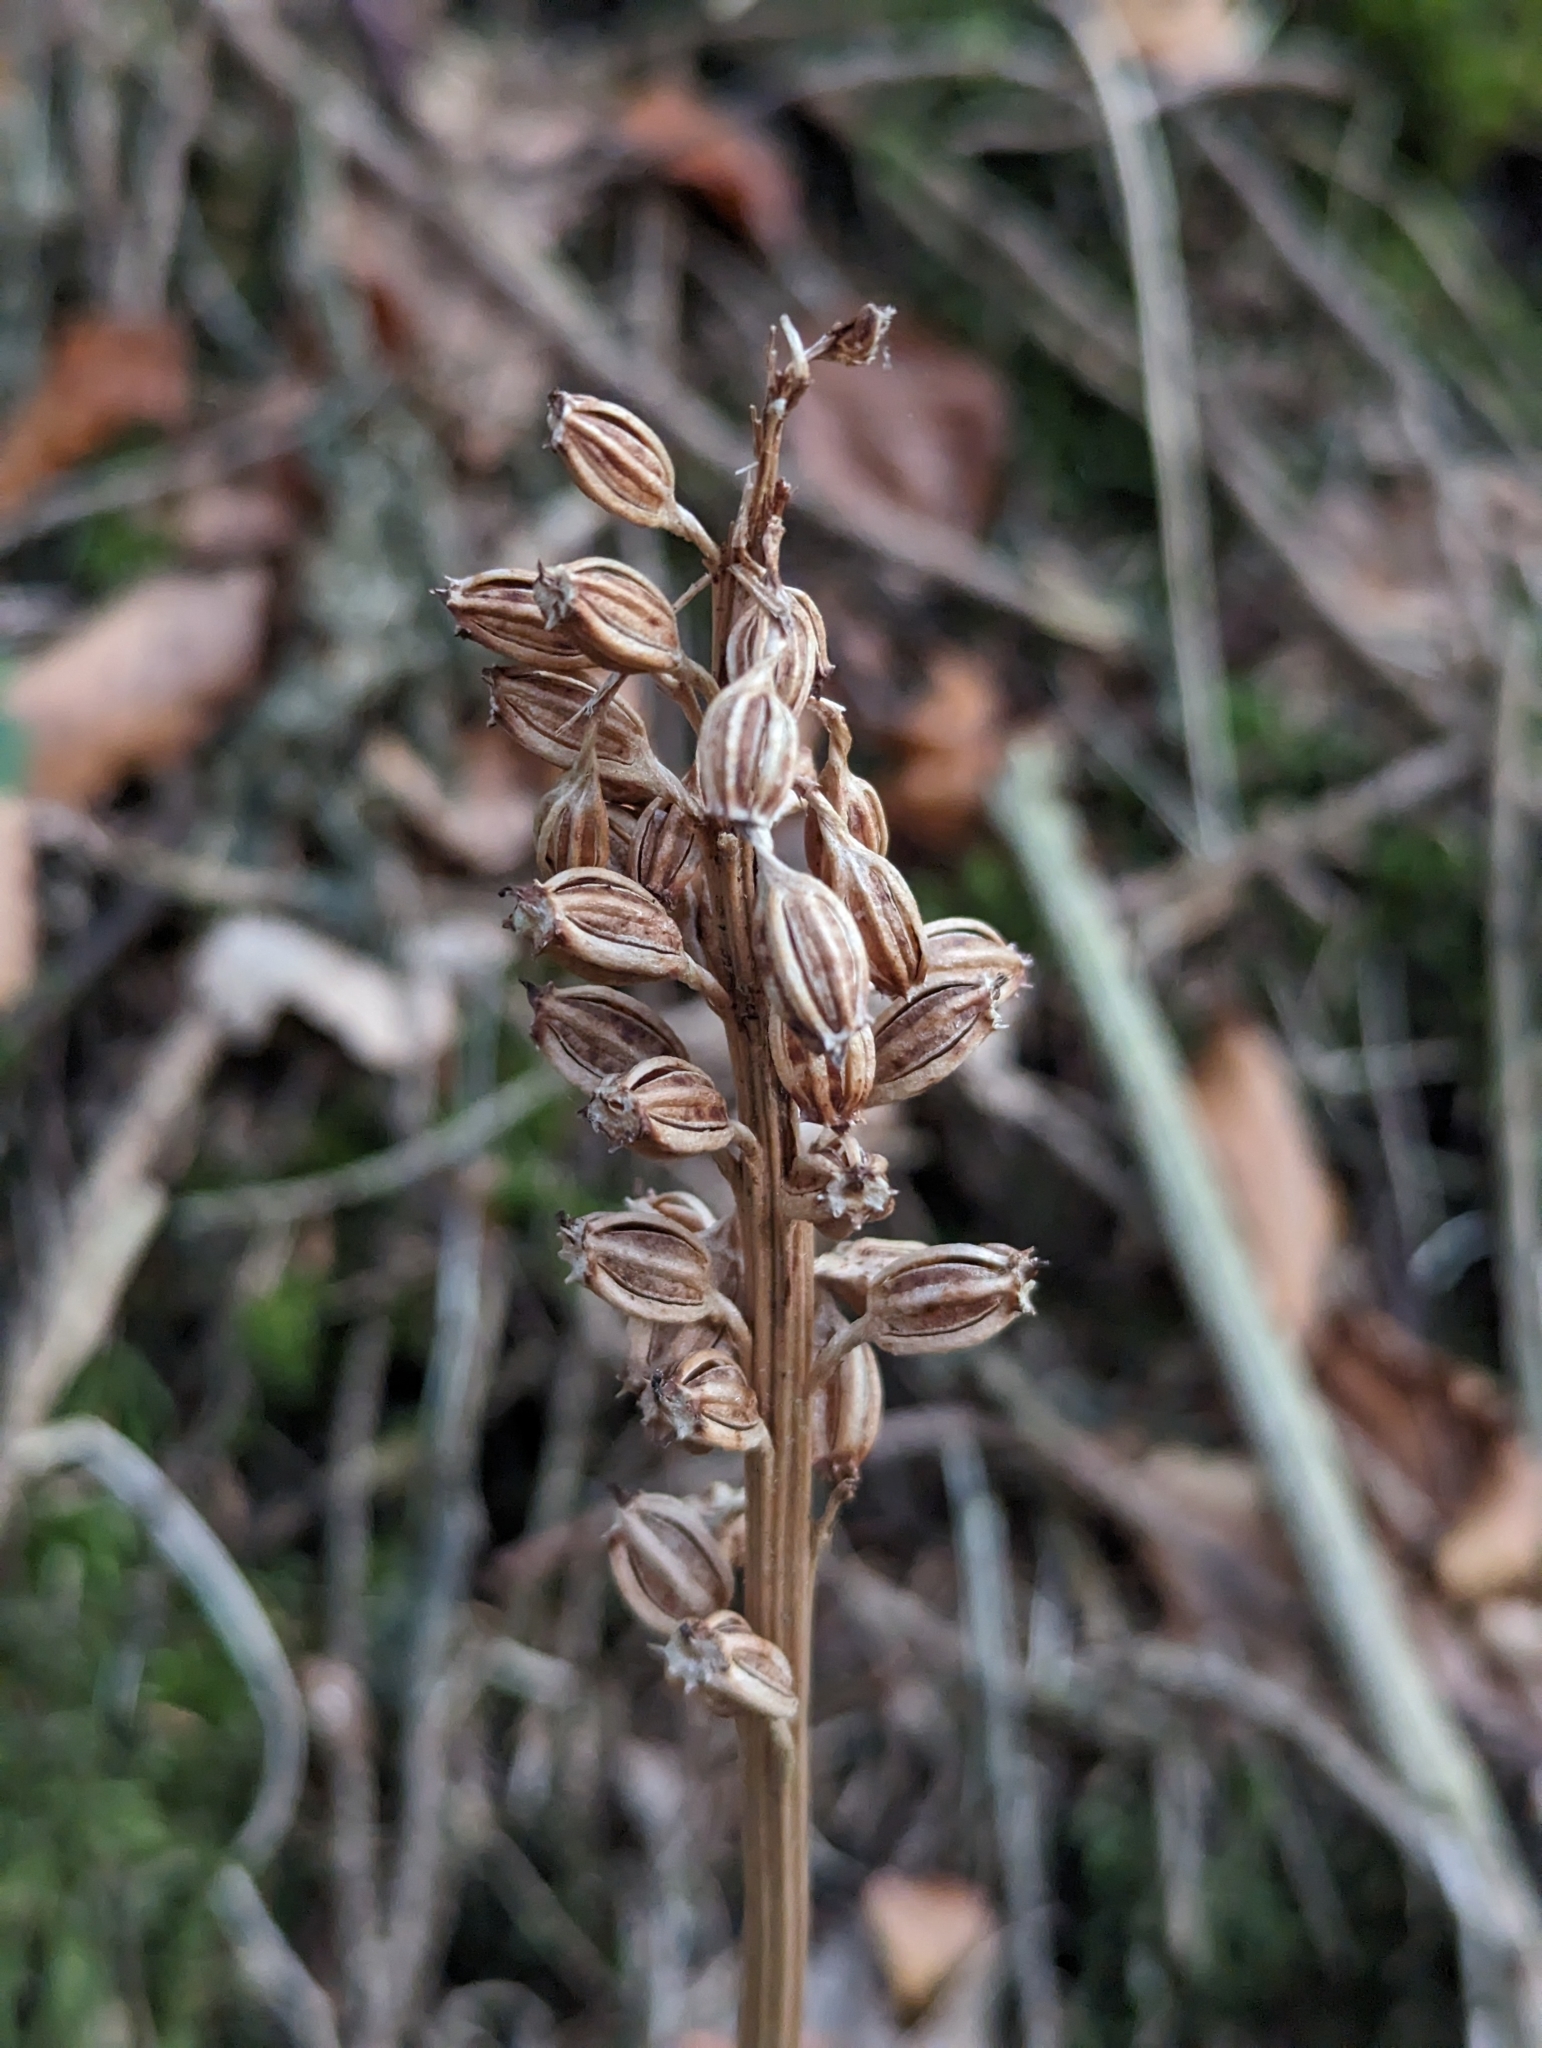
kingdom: Plantae
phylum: Tracheophyta
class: Liliopsida
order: Asparagales
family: Orchidaceae
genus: Neottia
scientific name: Neottia nidus-avis
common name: Bird's-nest orchid
